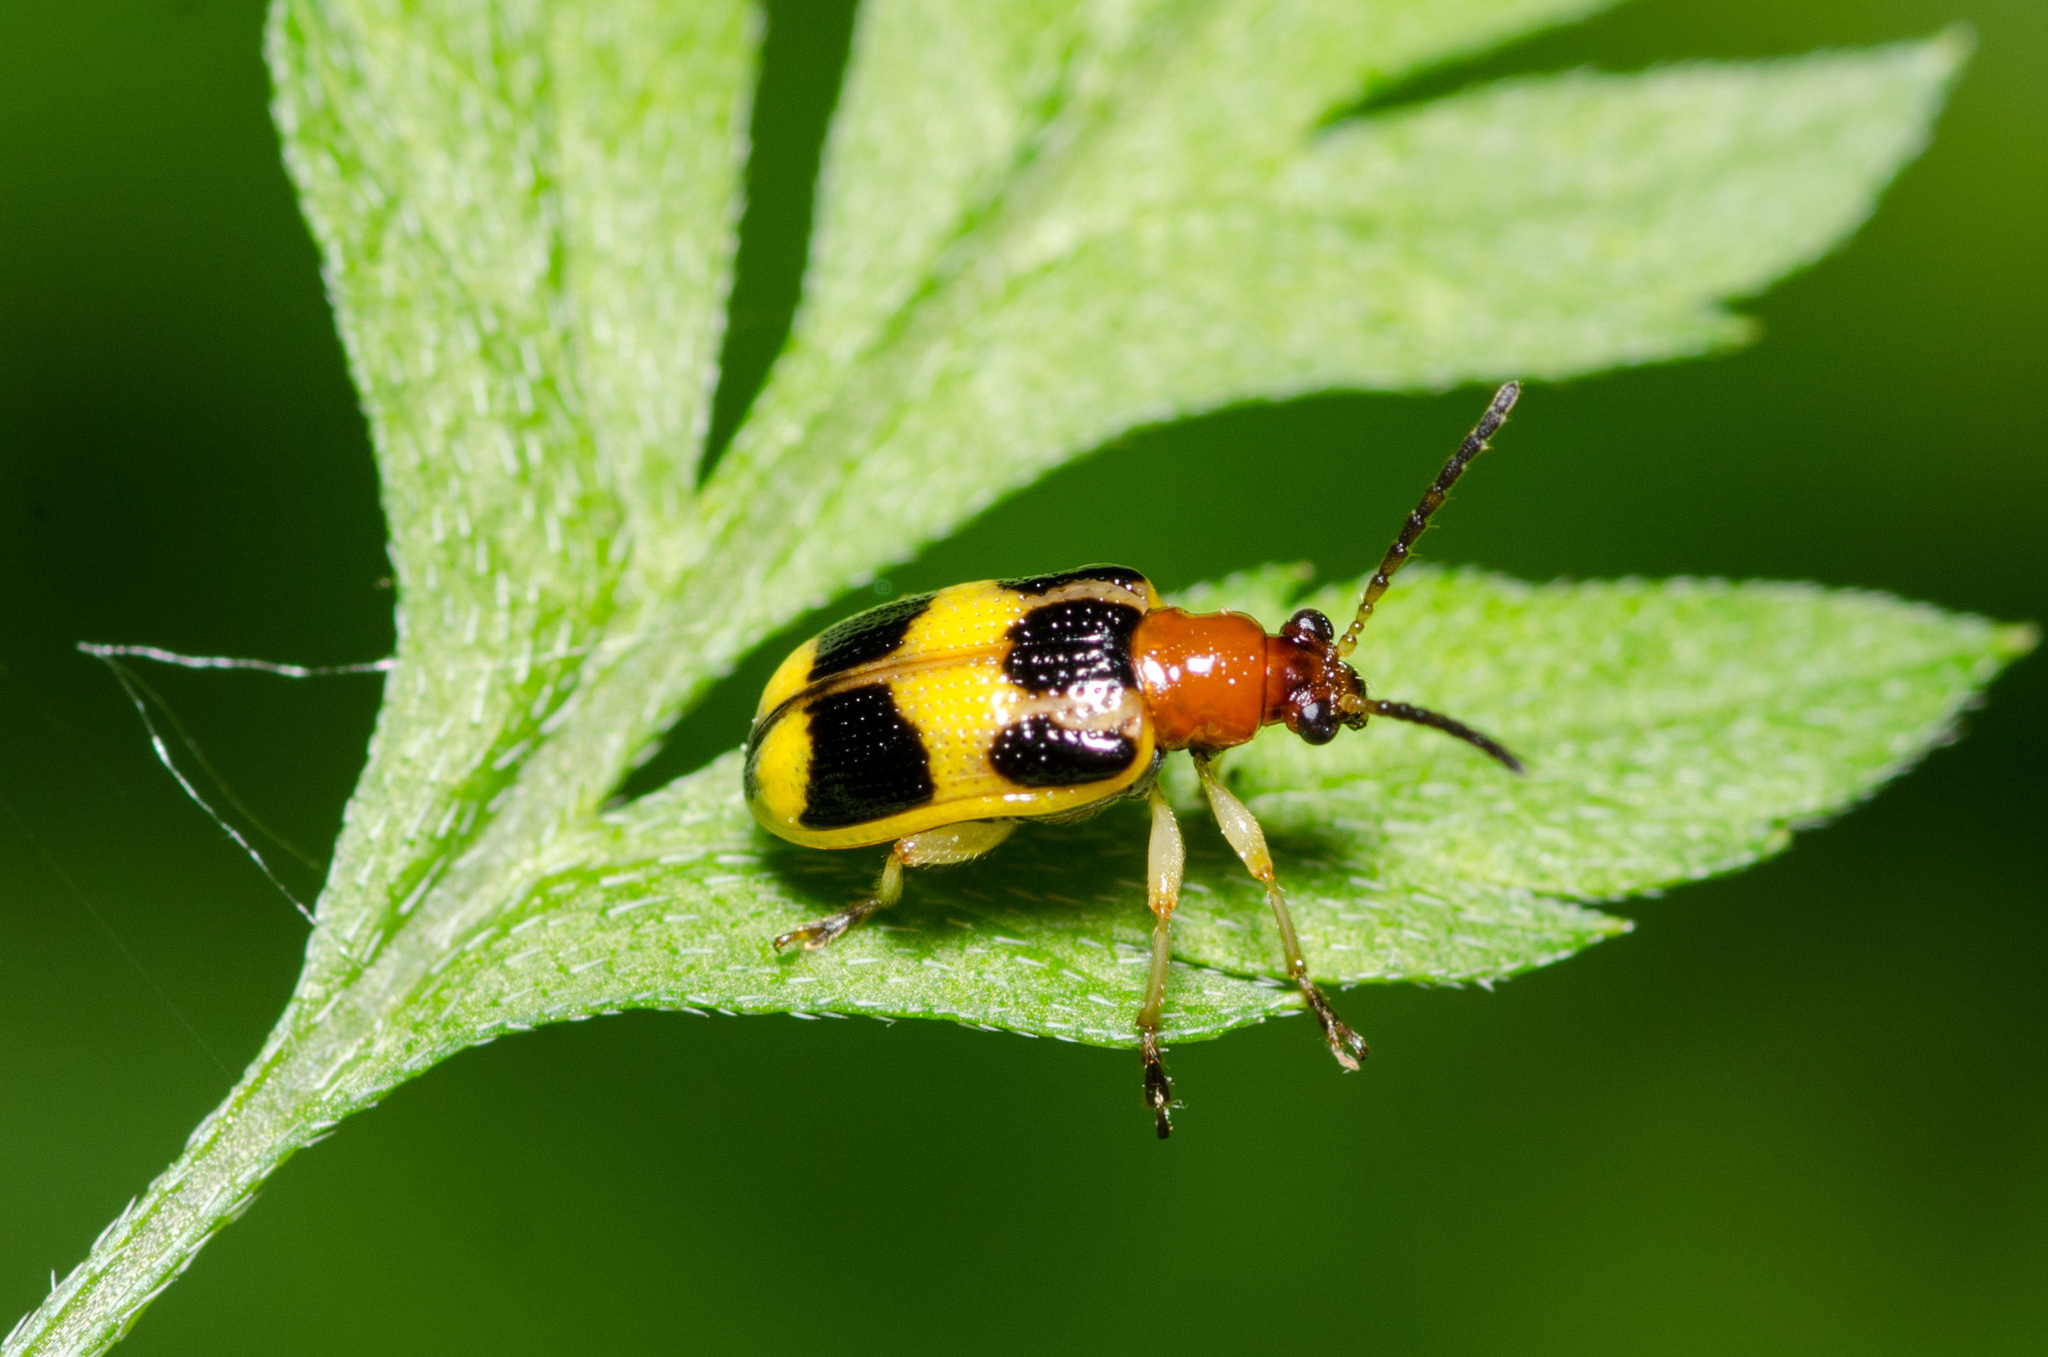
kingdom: Animalia
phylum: Arthropoda
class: Insecta
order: Coleoptera
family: Chrysomelidae
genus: Lema
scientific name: Lema opulenta
